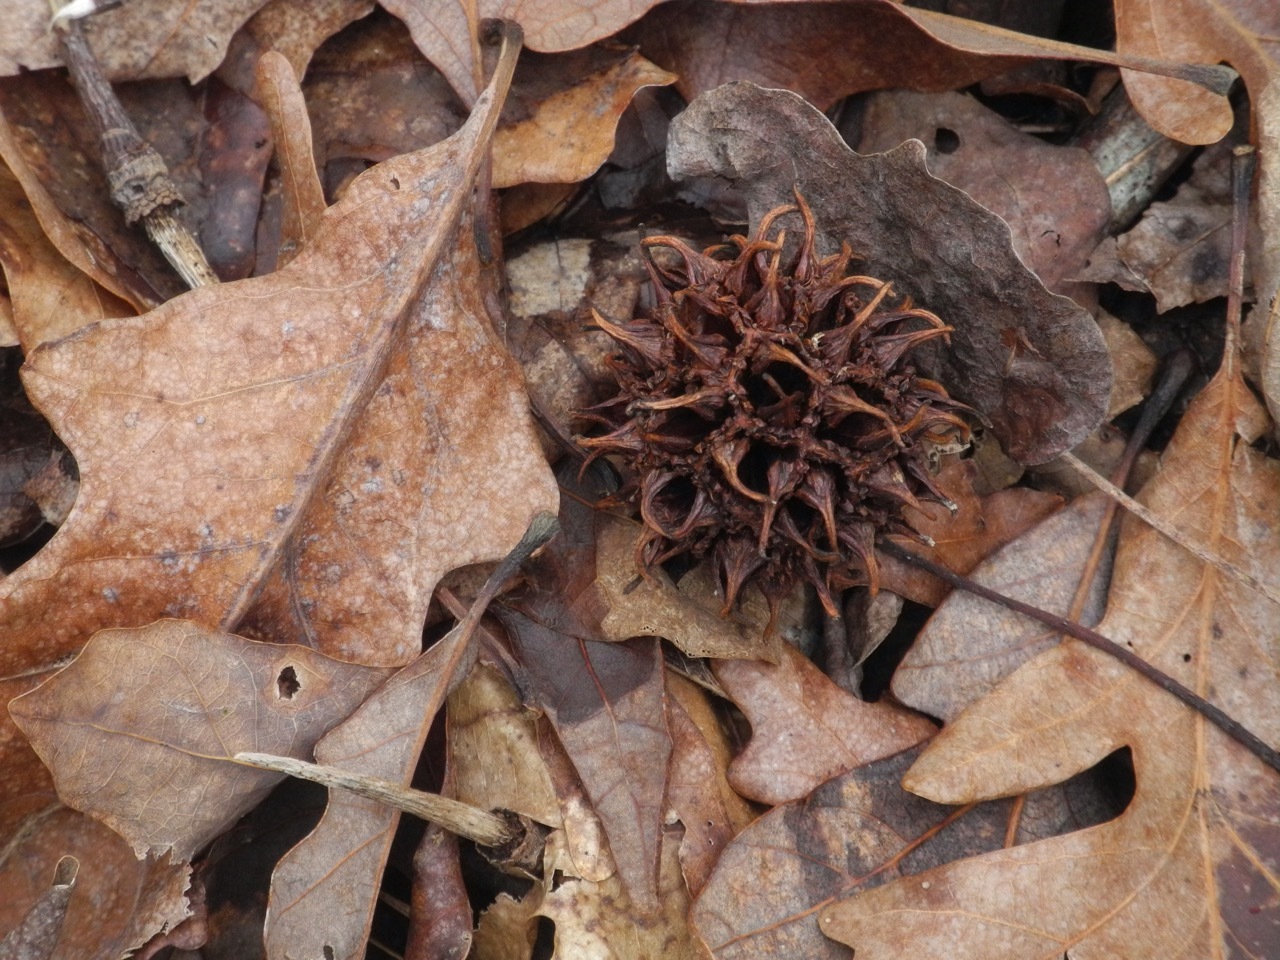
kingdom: Plantae
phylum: Tracheophyta
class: Magnoliopsida
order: Saxifragales
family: Altingiaceae
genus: Liquidambar
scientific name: Liquidambar styraciflua
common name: Sweet gum
